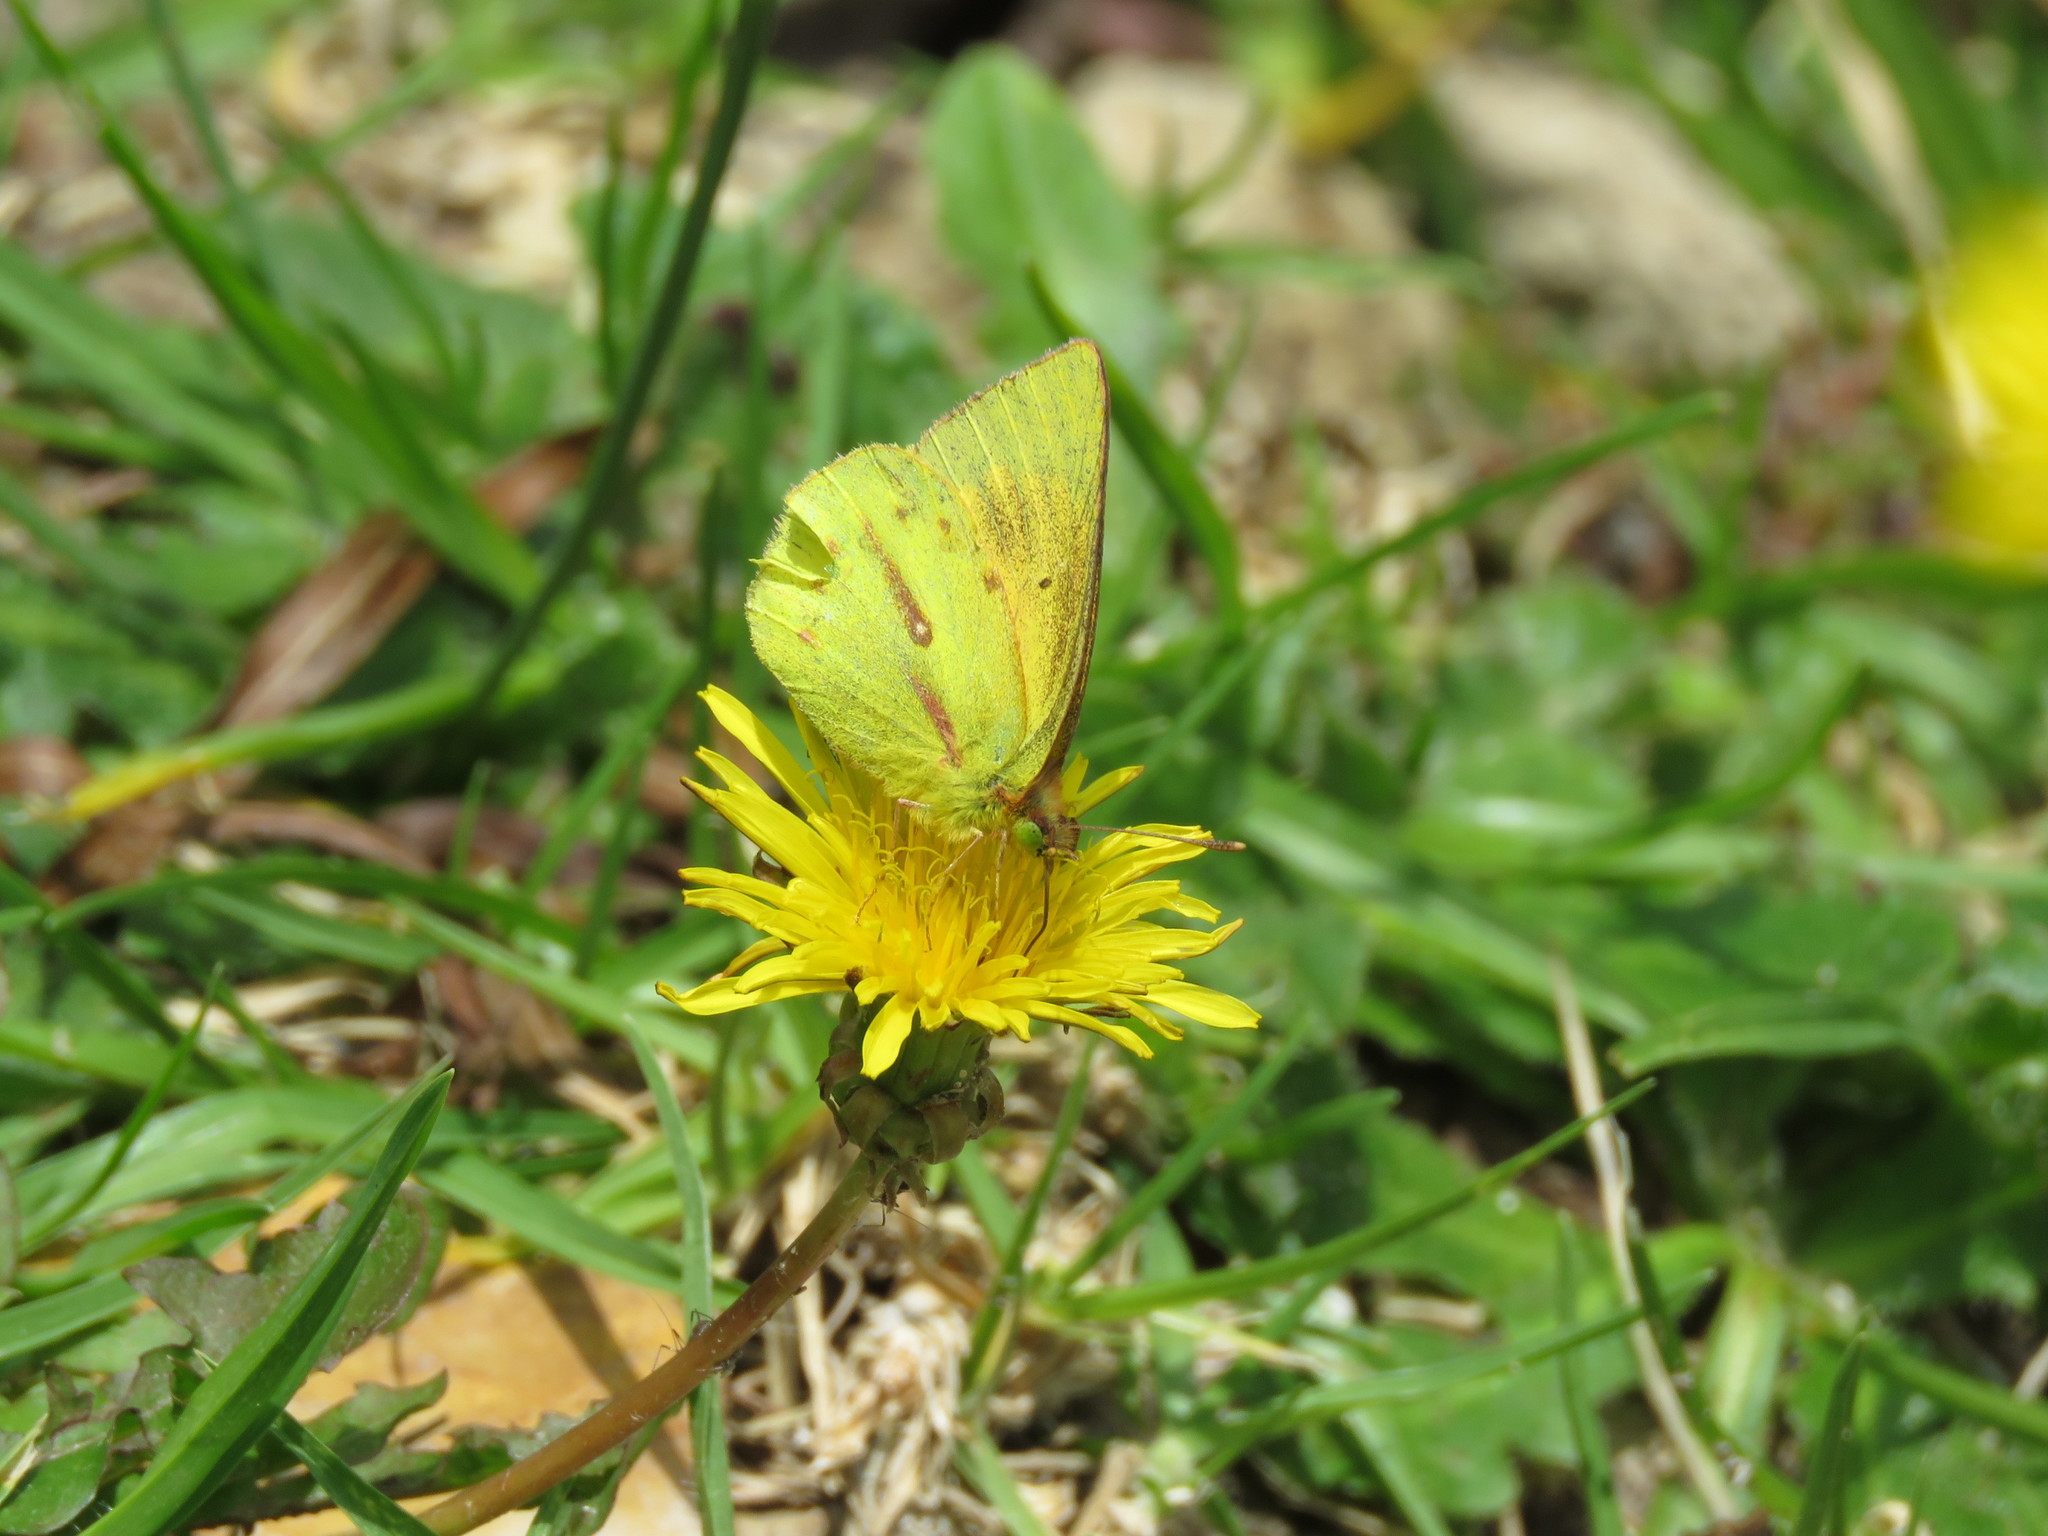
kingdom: Animalia
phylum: Arthropoda
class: Insecta
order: Lepidoptera
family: Pieridae
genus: Colias
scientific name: Colias dimera
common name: Dimera sulphur
